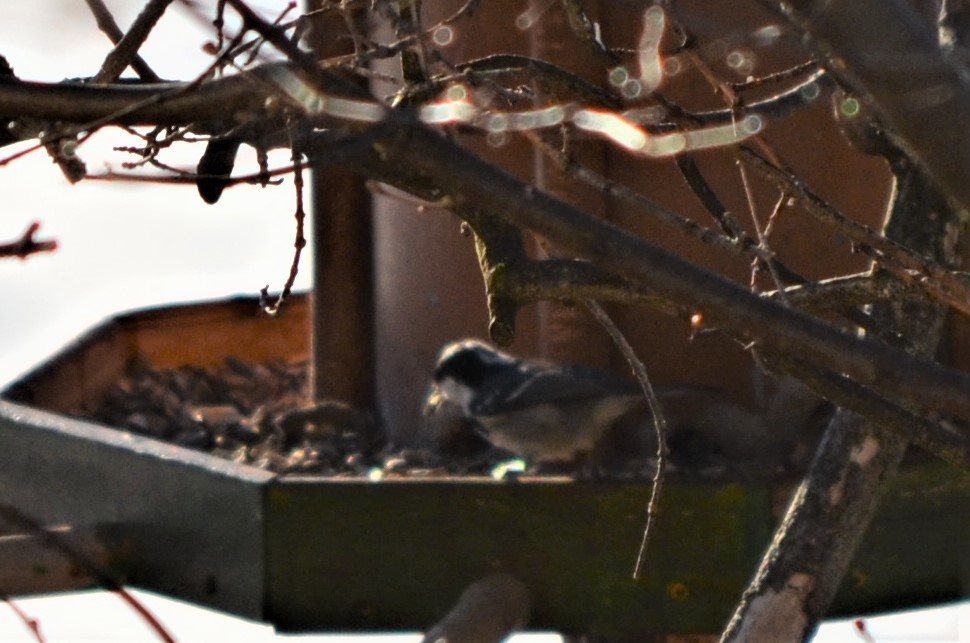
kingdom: Animalia
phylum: Chordata
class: Aves
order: Passeriformes
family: Paridae
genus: Periparus
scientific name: Periparus ater
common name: Coal tit
